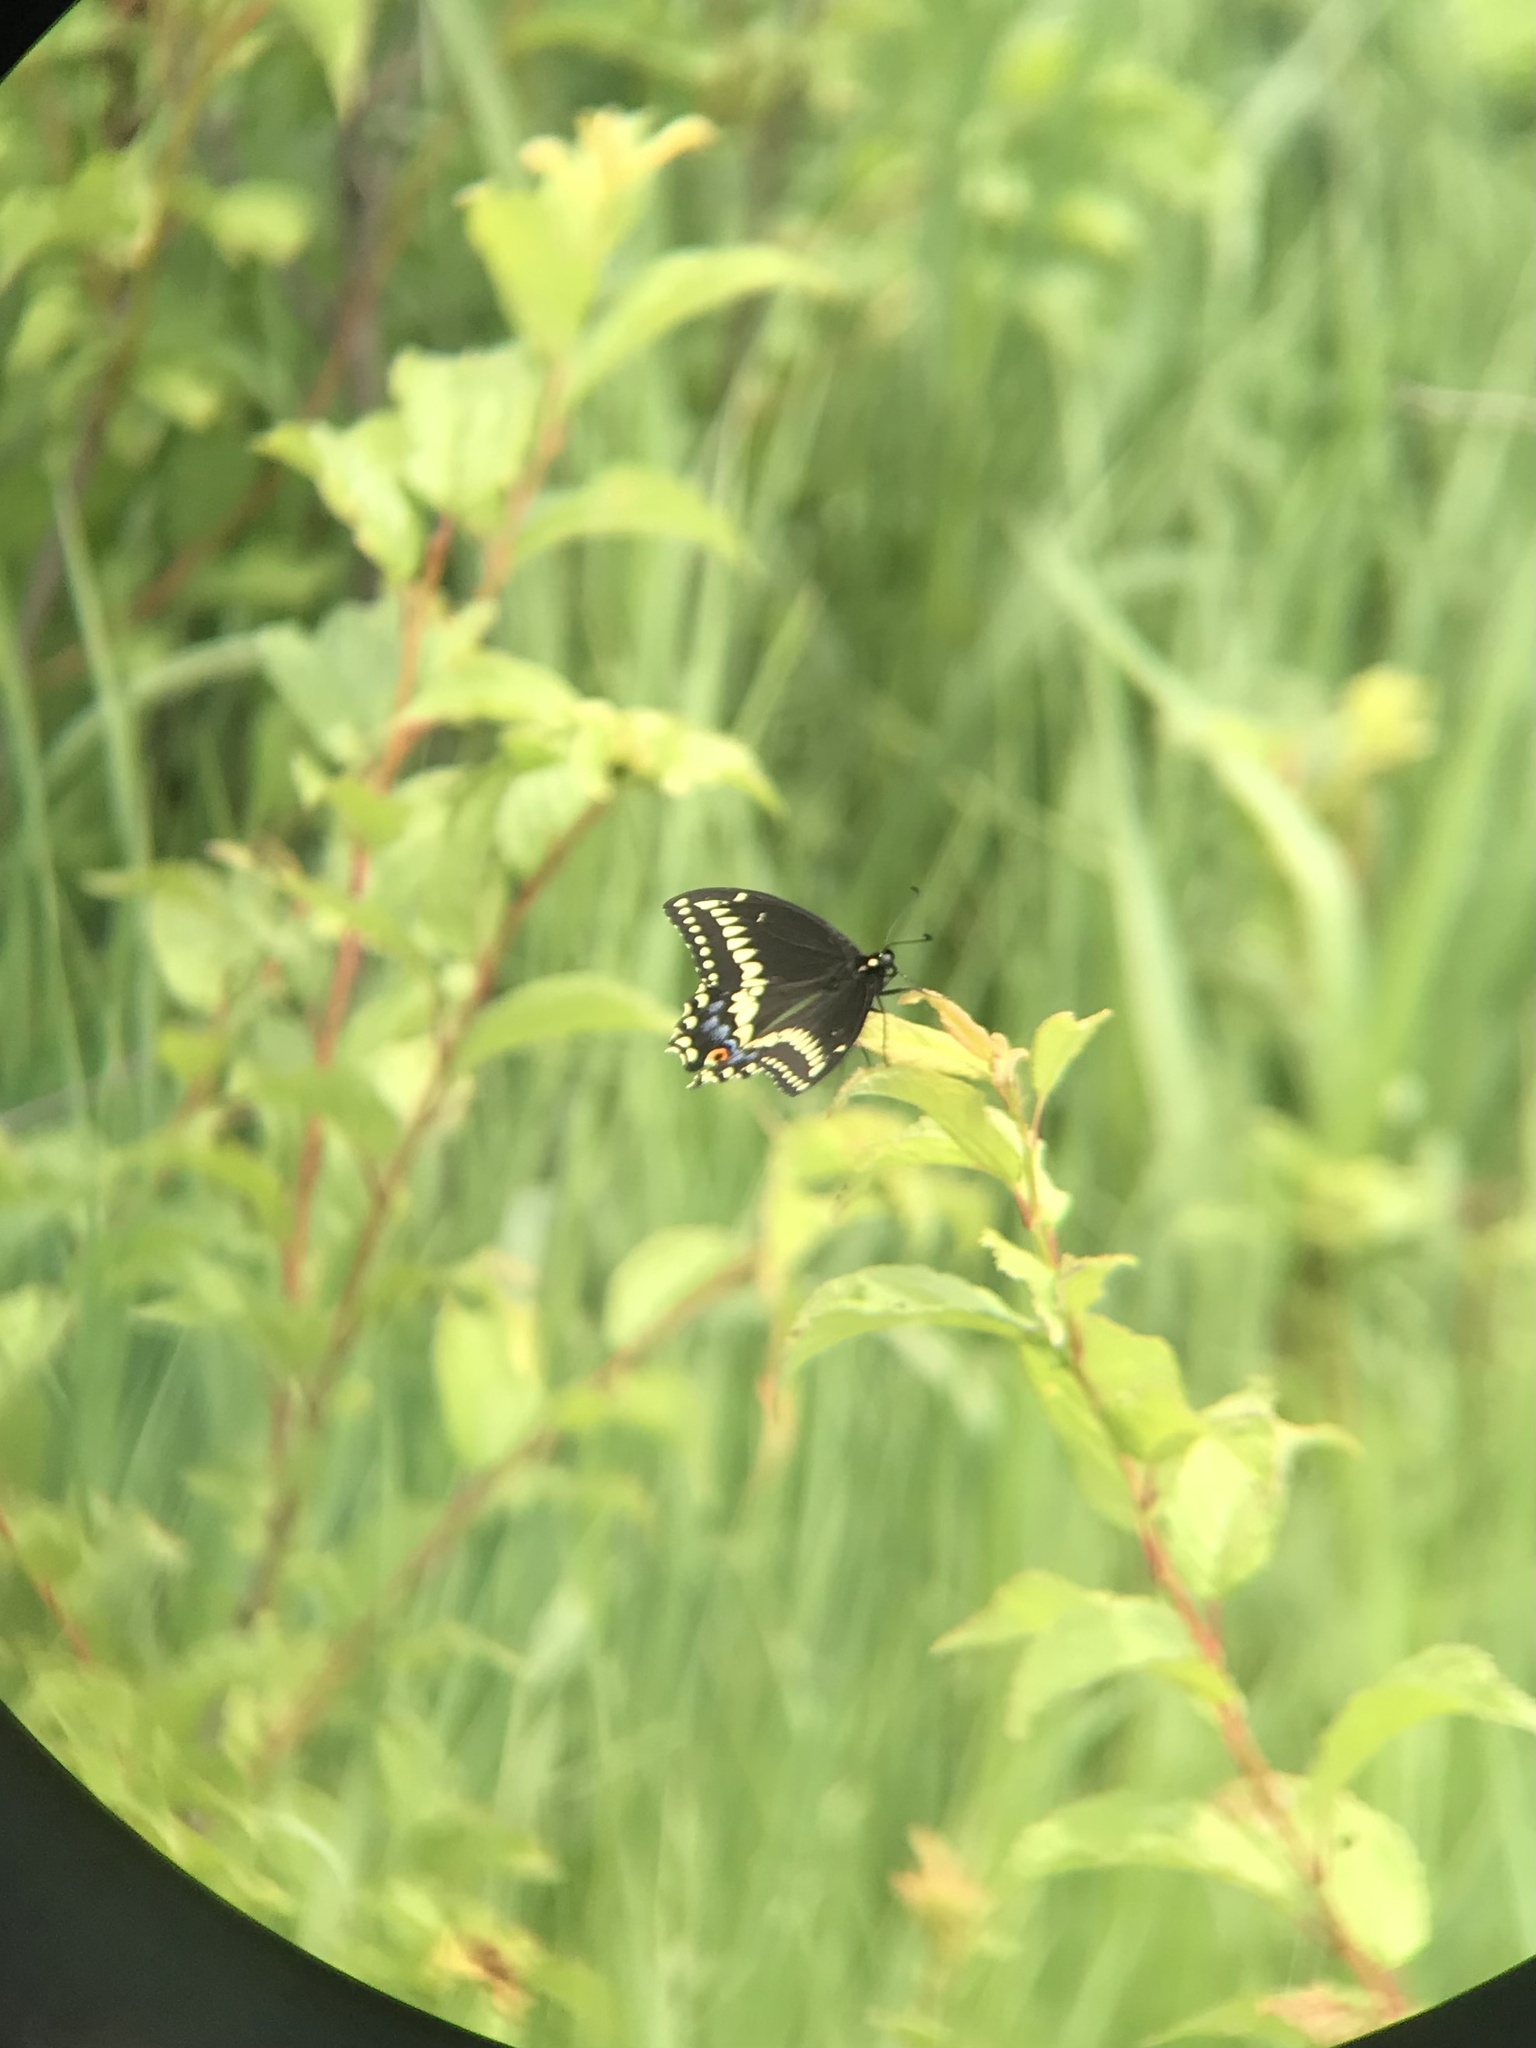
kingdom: Animalia
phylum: Arthropoda
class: Insecta
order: Lepidoptera
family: Papilionidae
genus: Papilio
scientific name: Papilio polyxenes
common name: Black swallowtail
